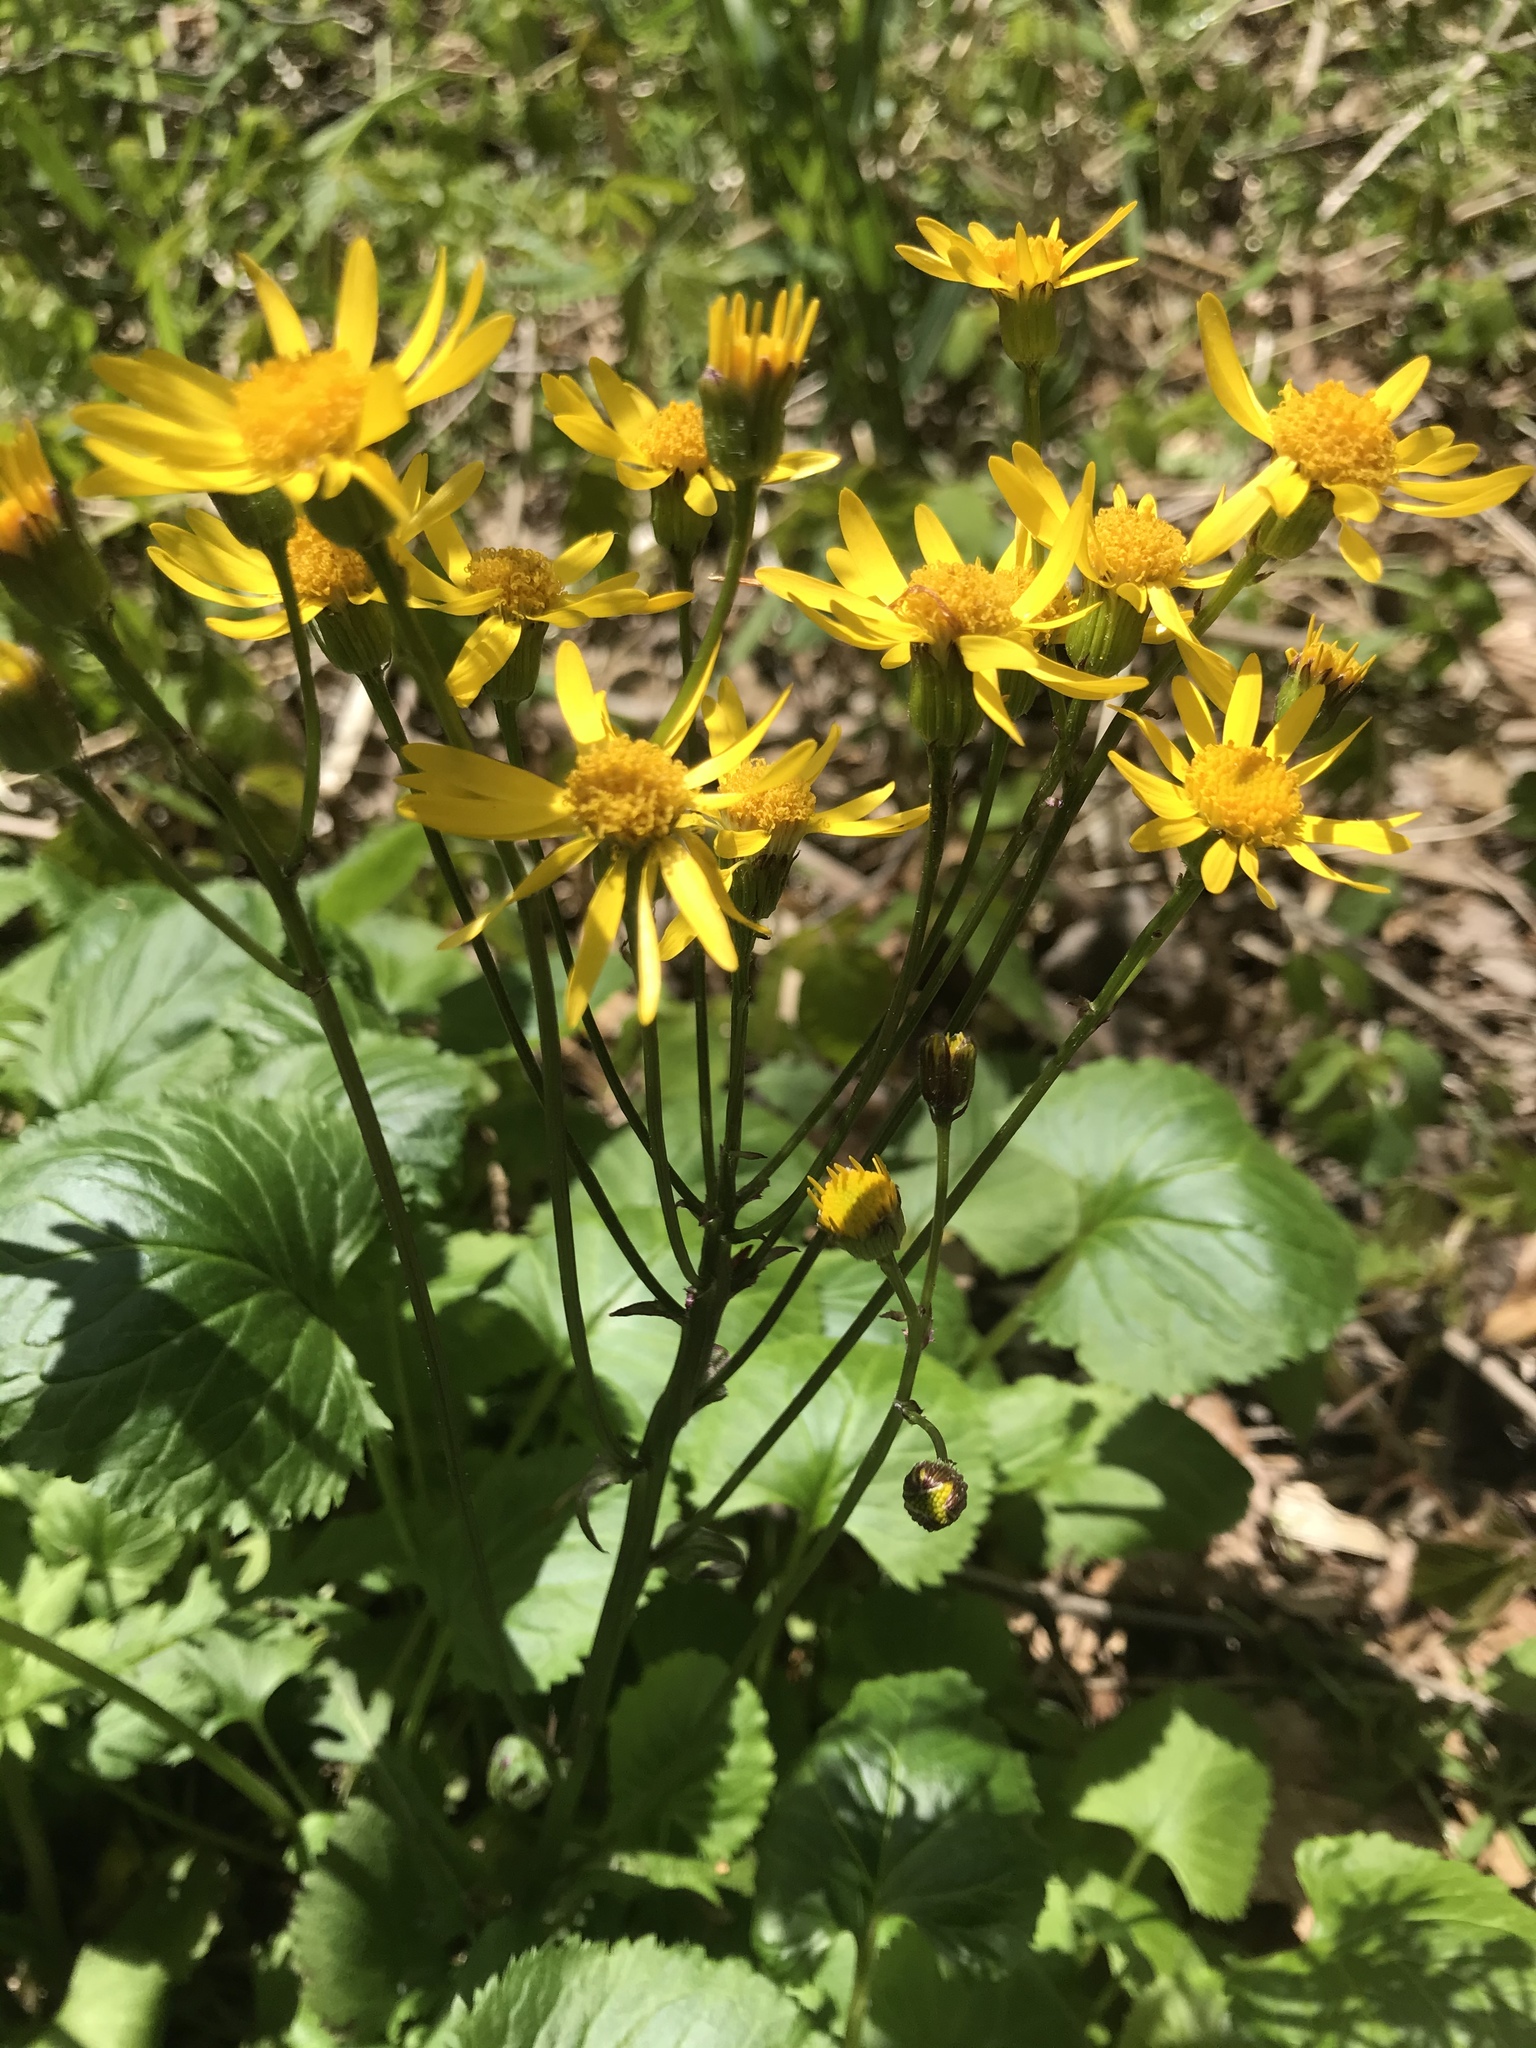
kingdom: Plantae
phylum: Tracheophyta
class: Magnoliopsida
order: Asterales
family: Asteraceae
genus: Packera
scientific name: Packera aurea
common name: Golden groundsel
